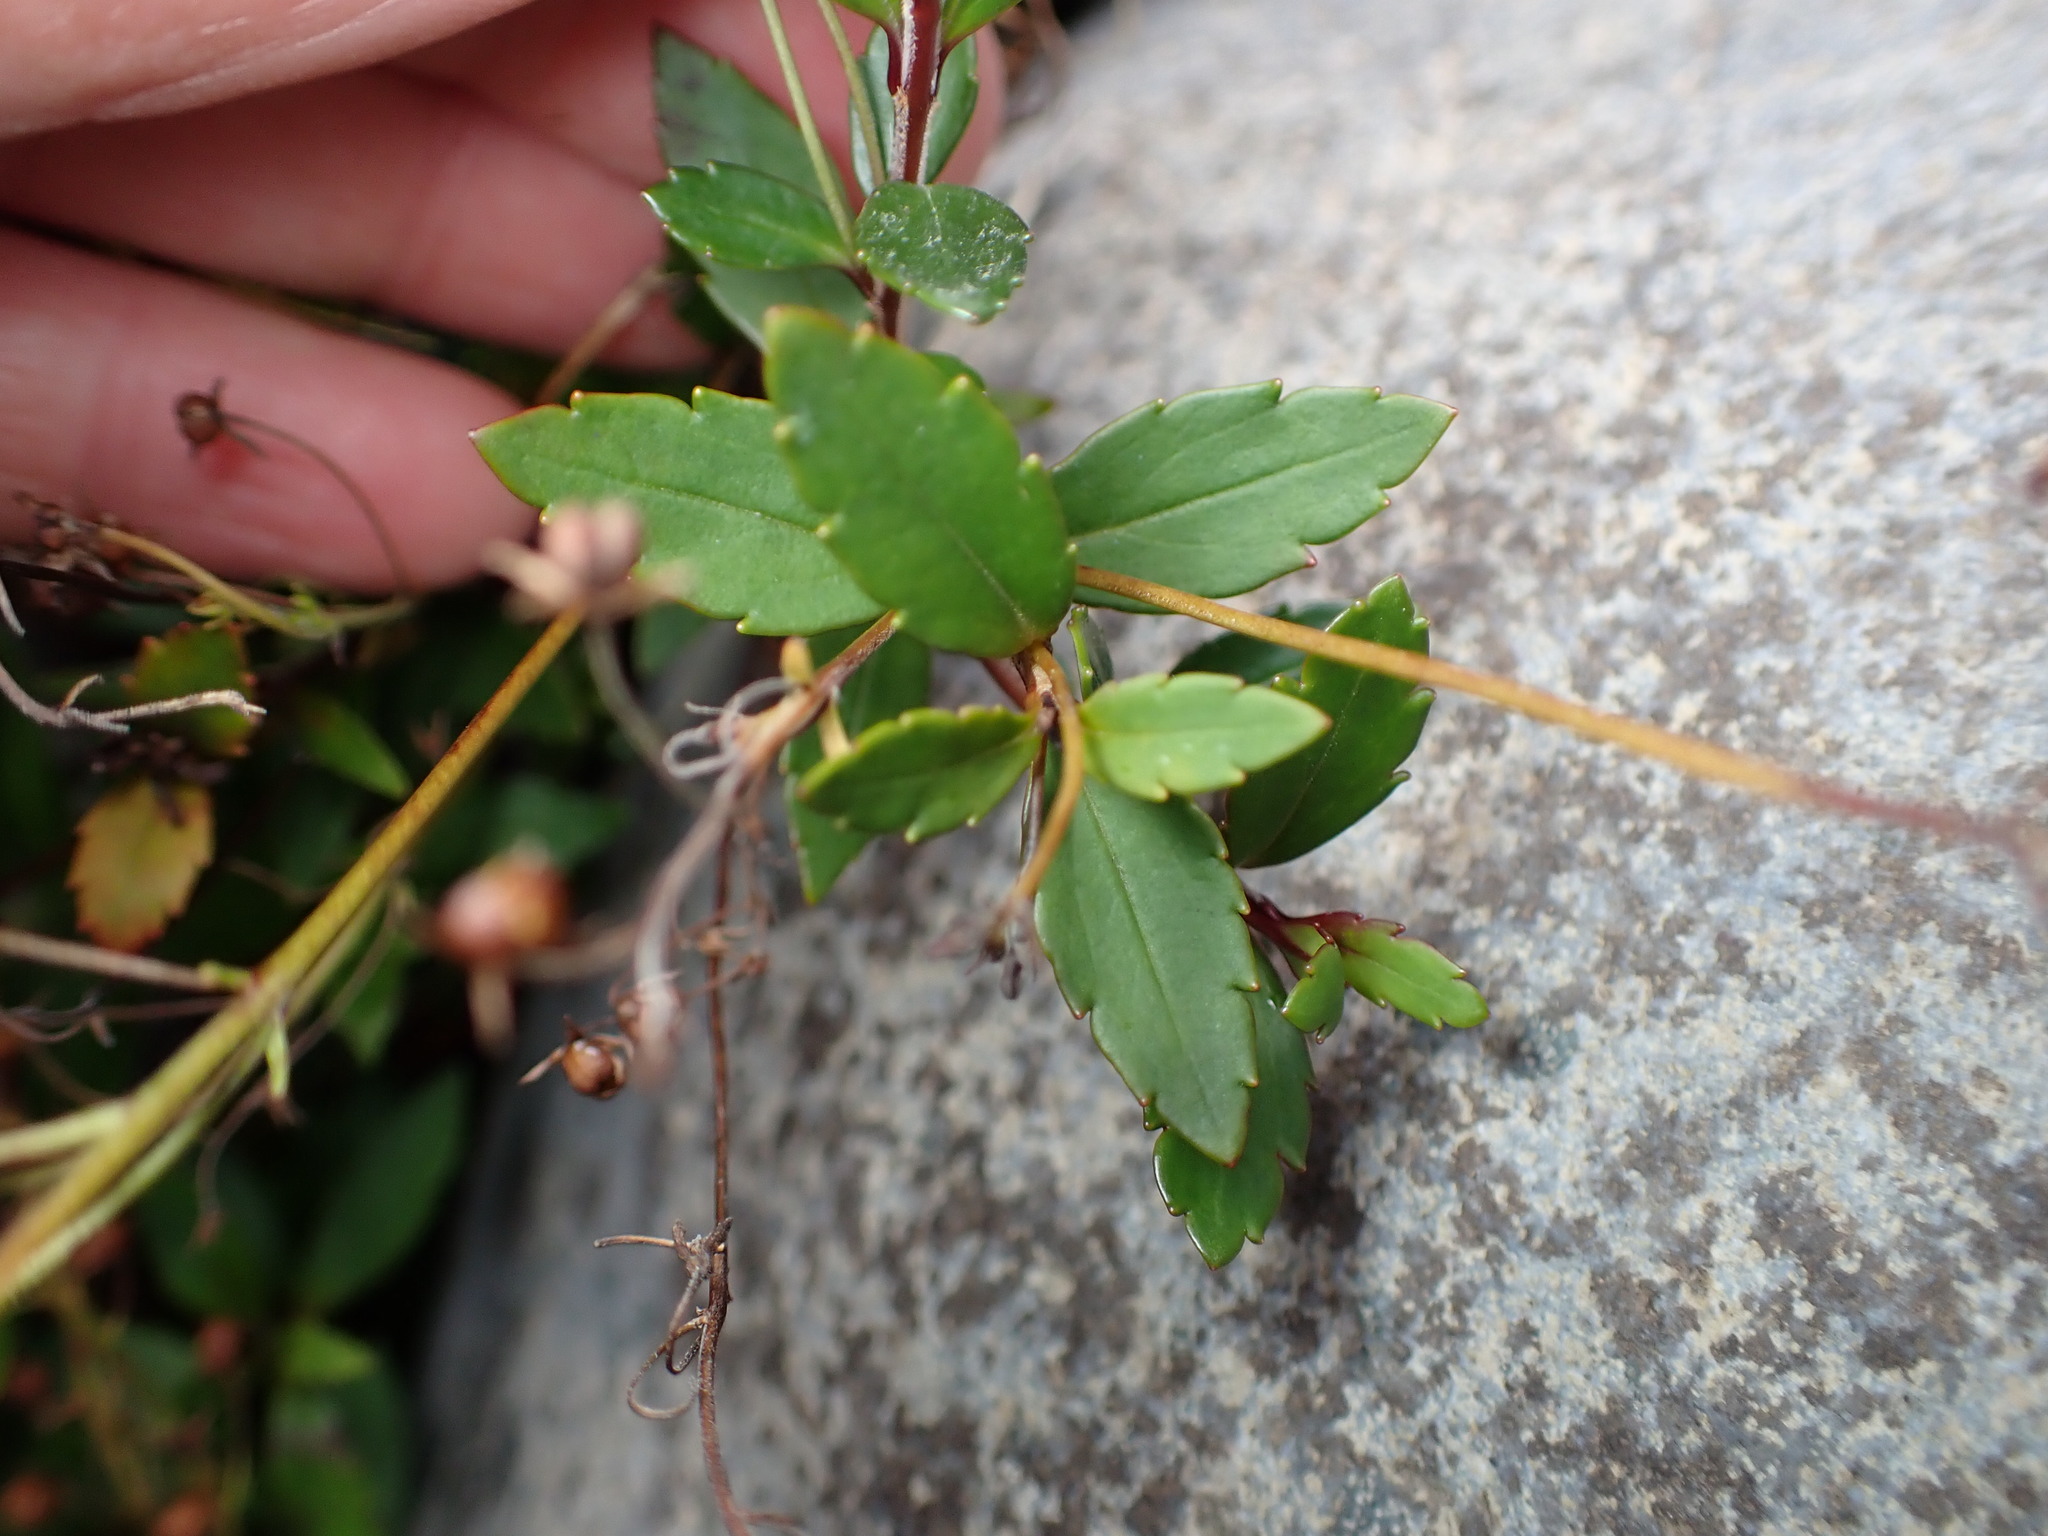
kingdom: Plantae
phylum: Tracheophyta
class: Magnoliopsida
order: Lamiales
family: Plantaginaceae
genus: Veronica
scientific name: Veronica lanceolata
